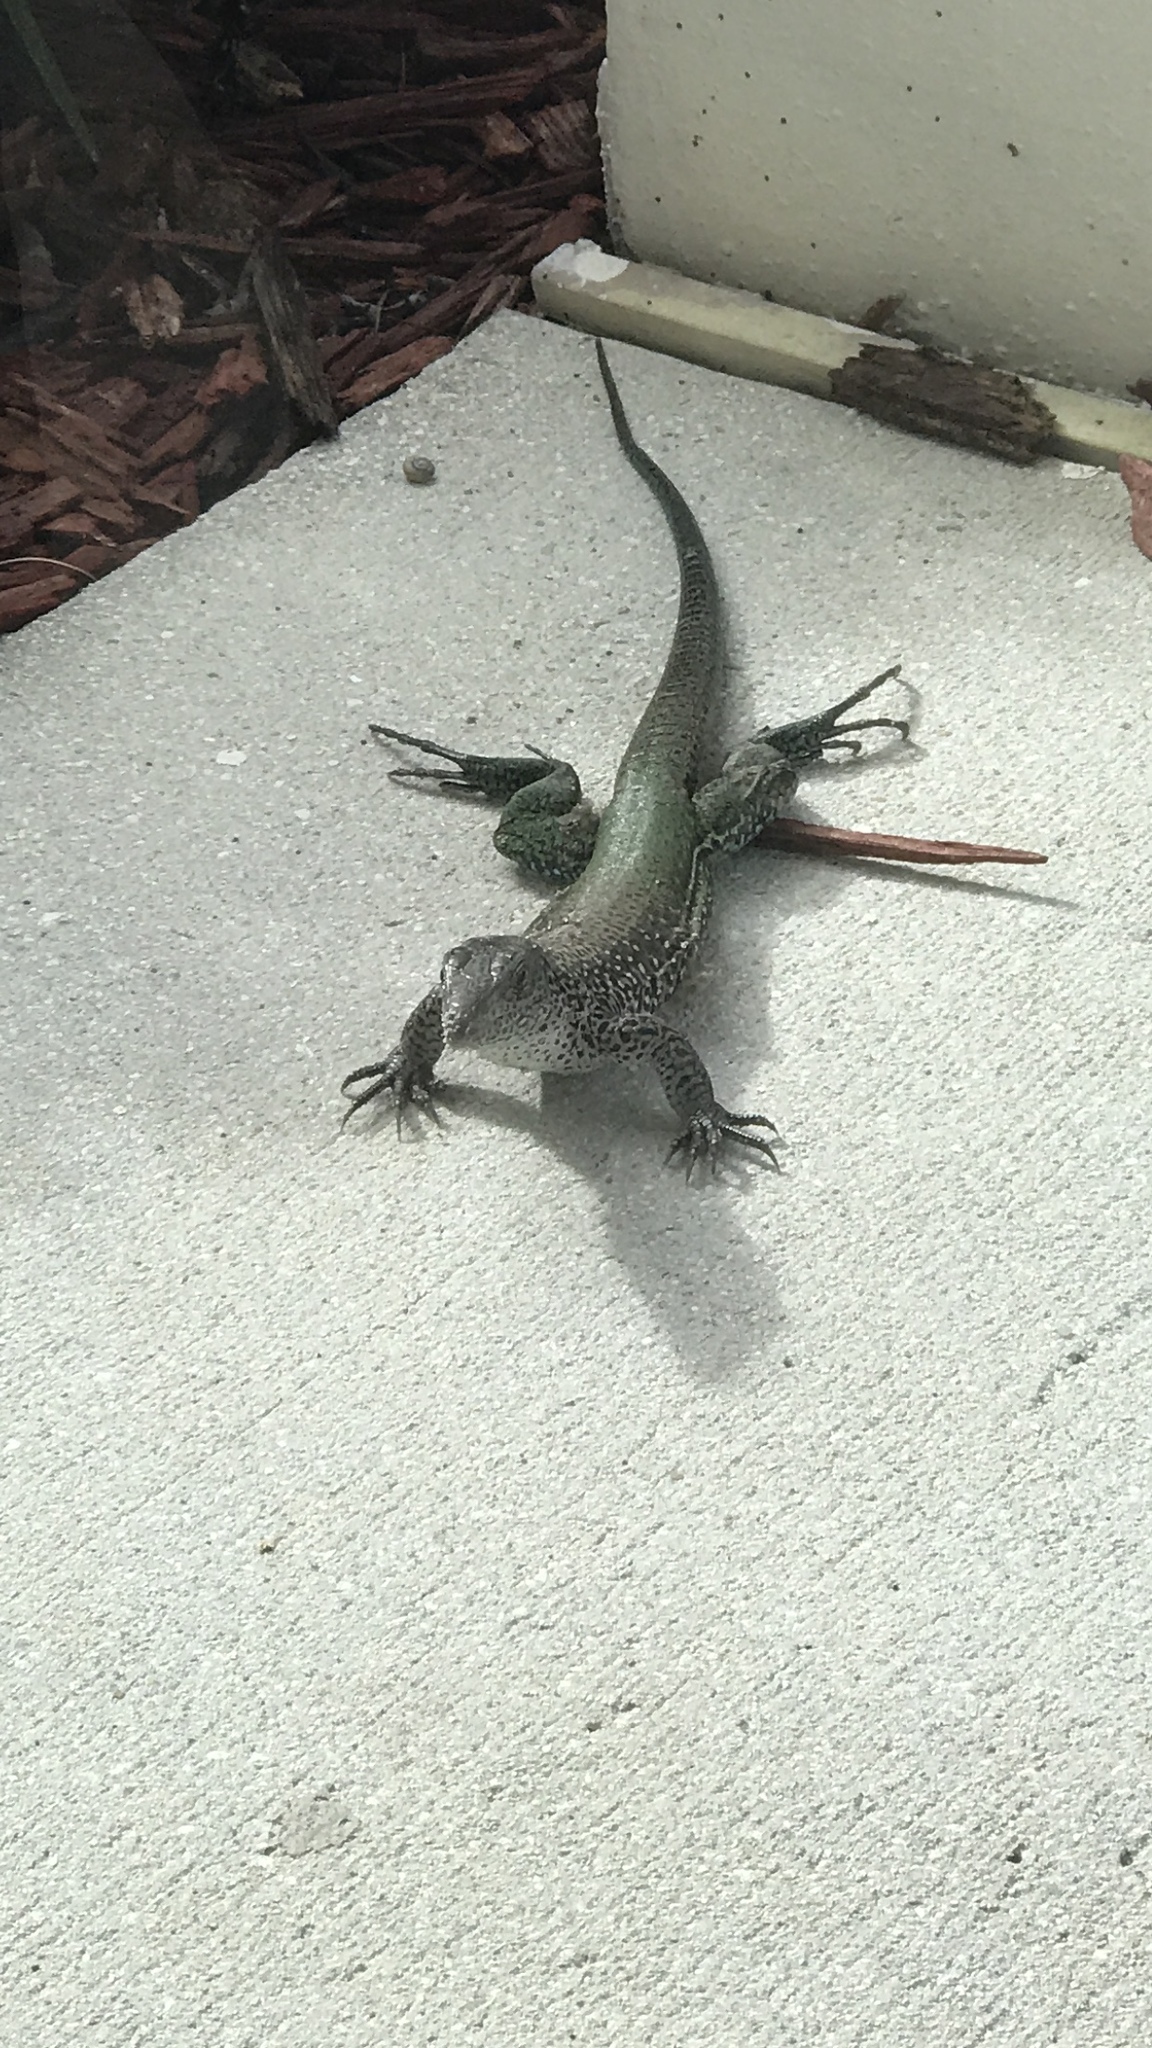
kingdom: Animalia
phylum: Chordata
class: Squamata
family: Teiidae
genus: Ameiva
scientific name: Ameiva ameiva
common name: Giant ameiva
